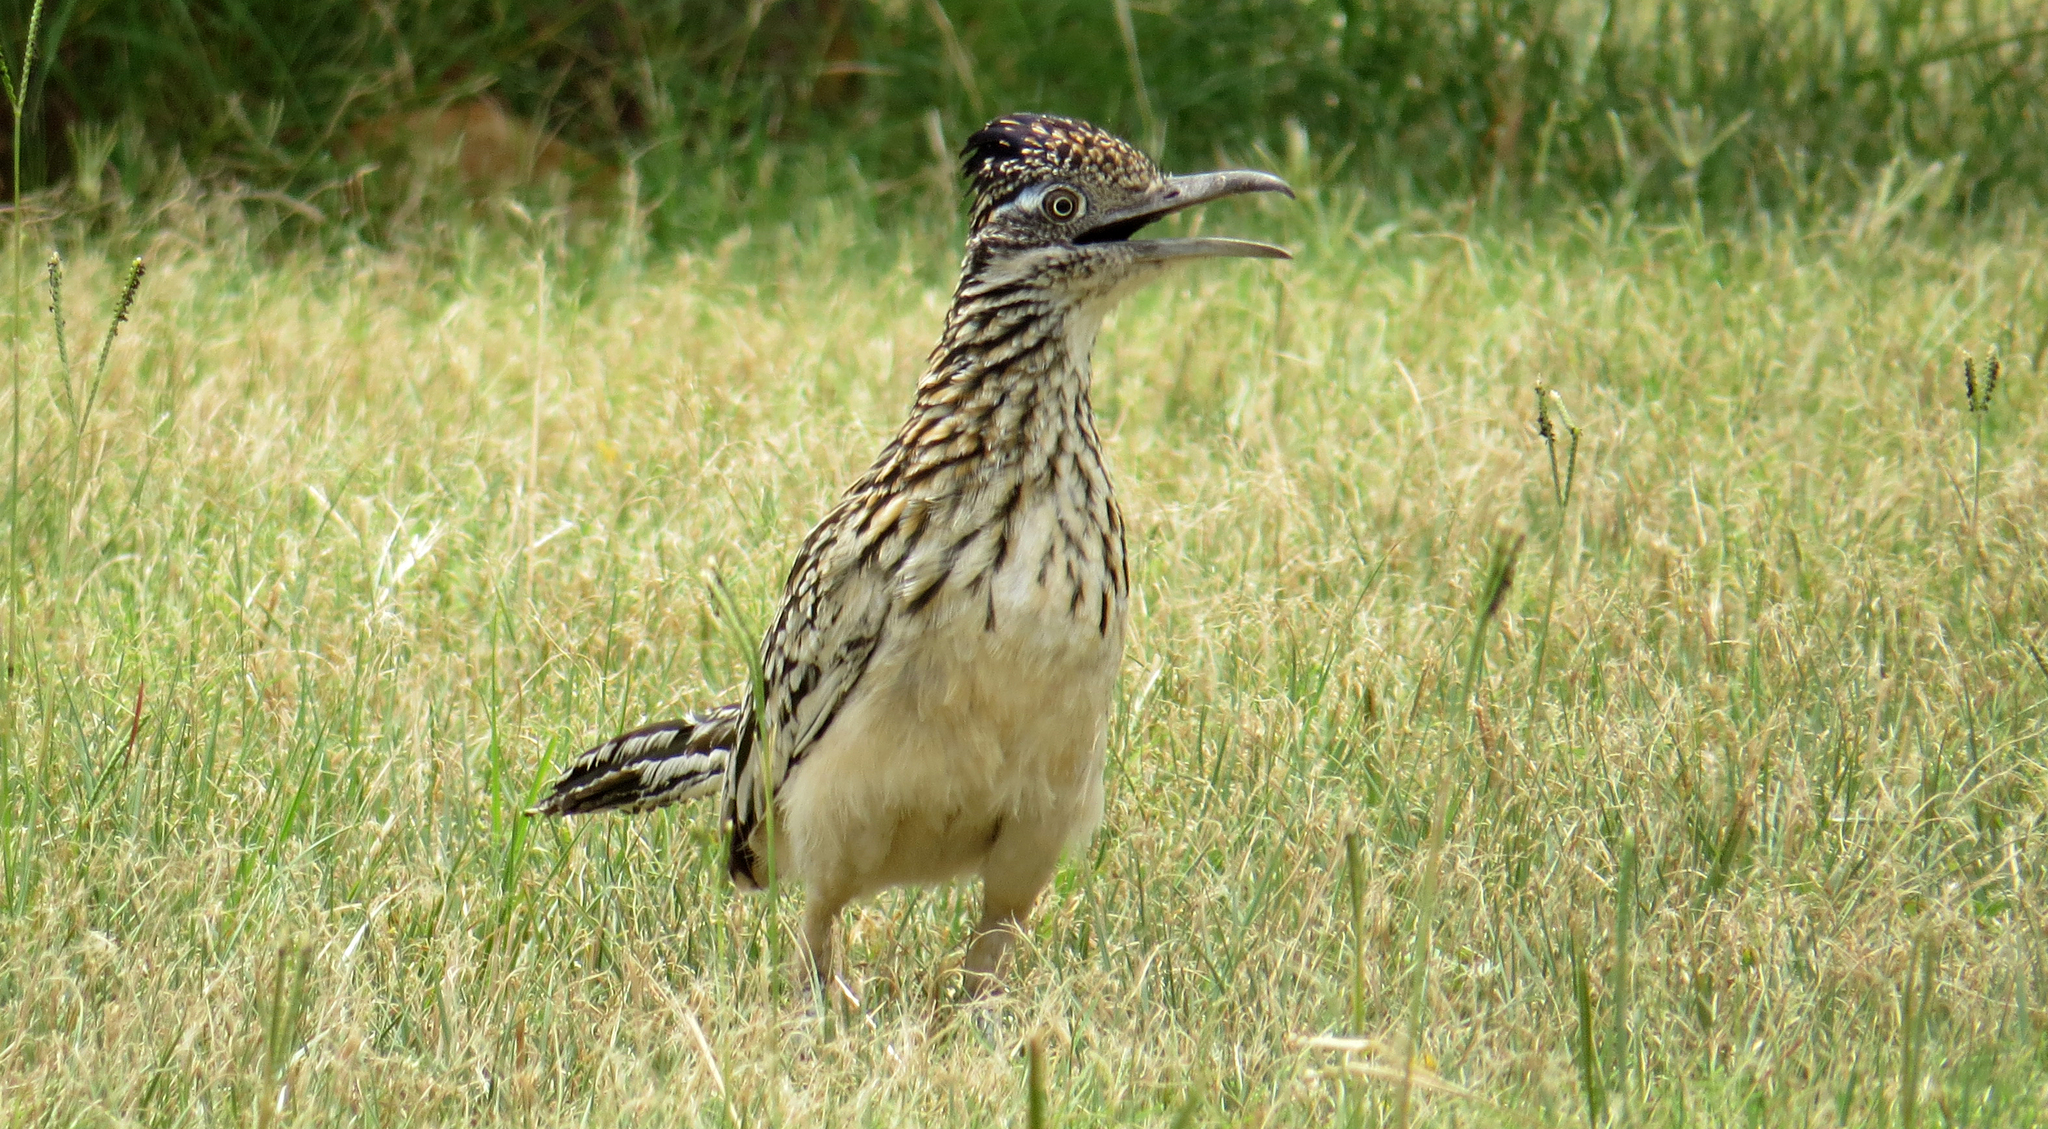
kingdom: Animalia
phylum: Chordata
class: Aves
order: Cuculiformes
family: Cuculidae
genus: Geococcyx
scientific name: Geococcyx californianus
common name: Greater roadrunner
